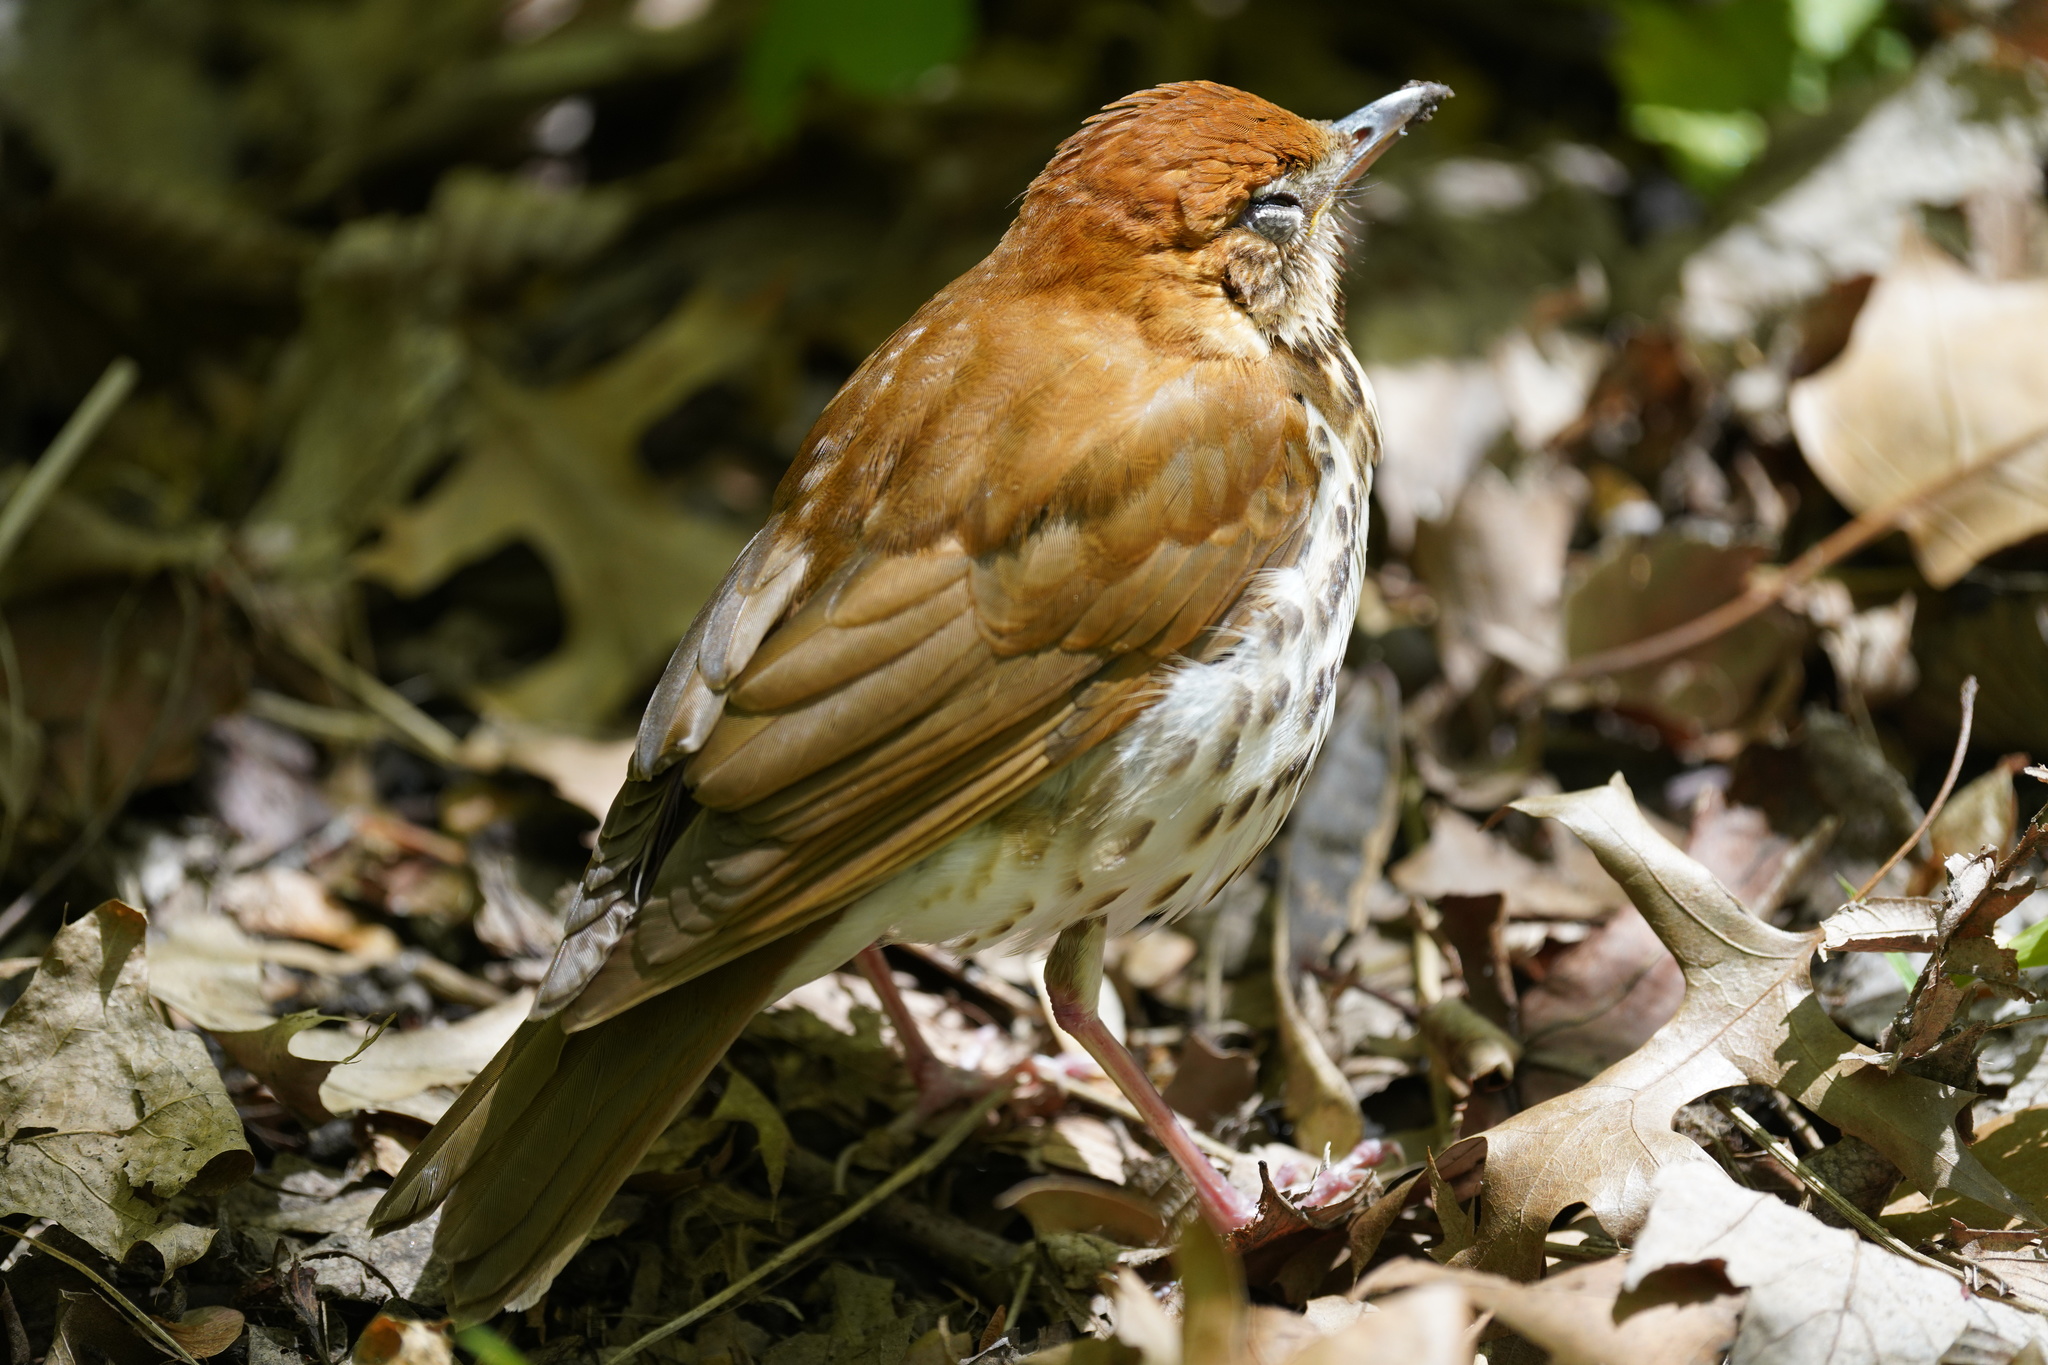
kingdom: Animalia
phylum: Chordata
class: Aves
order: Passeriformes
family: Turdidae
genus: Hylocichla
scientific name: Hylocichla mustelina
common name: Wood thrush
